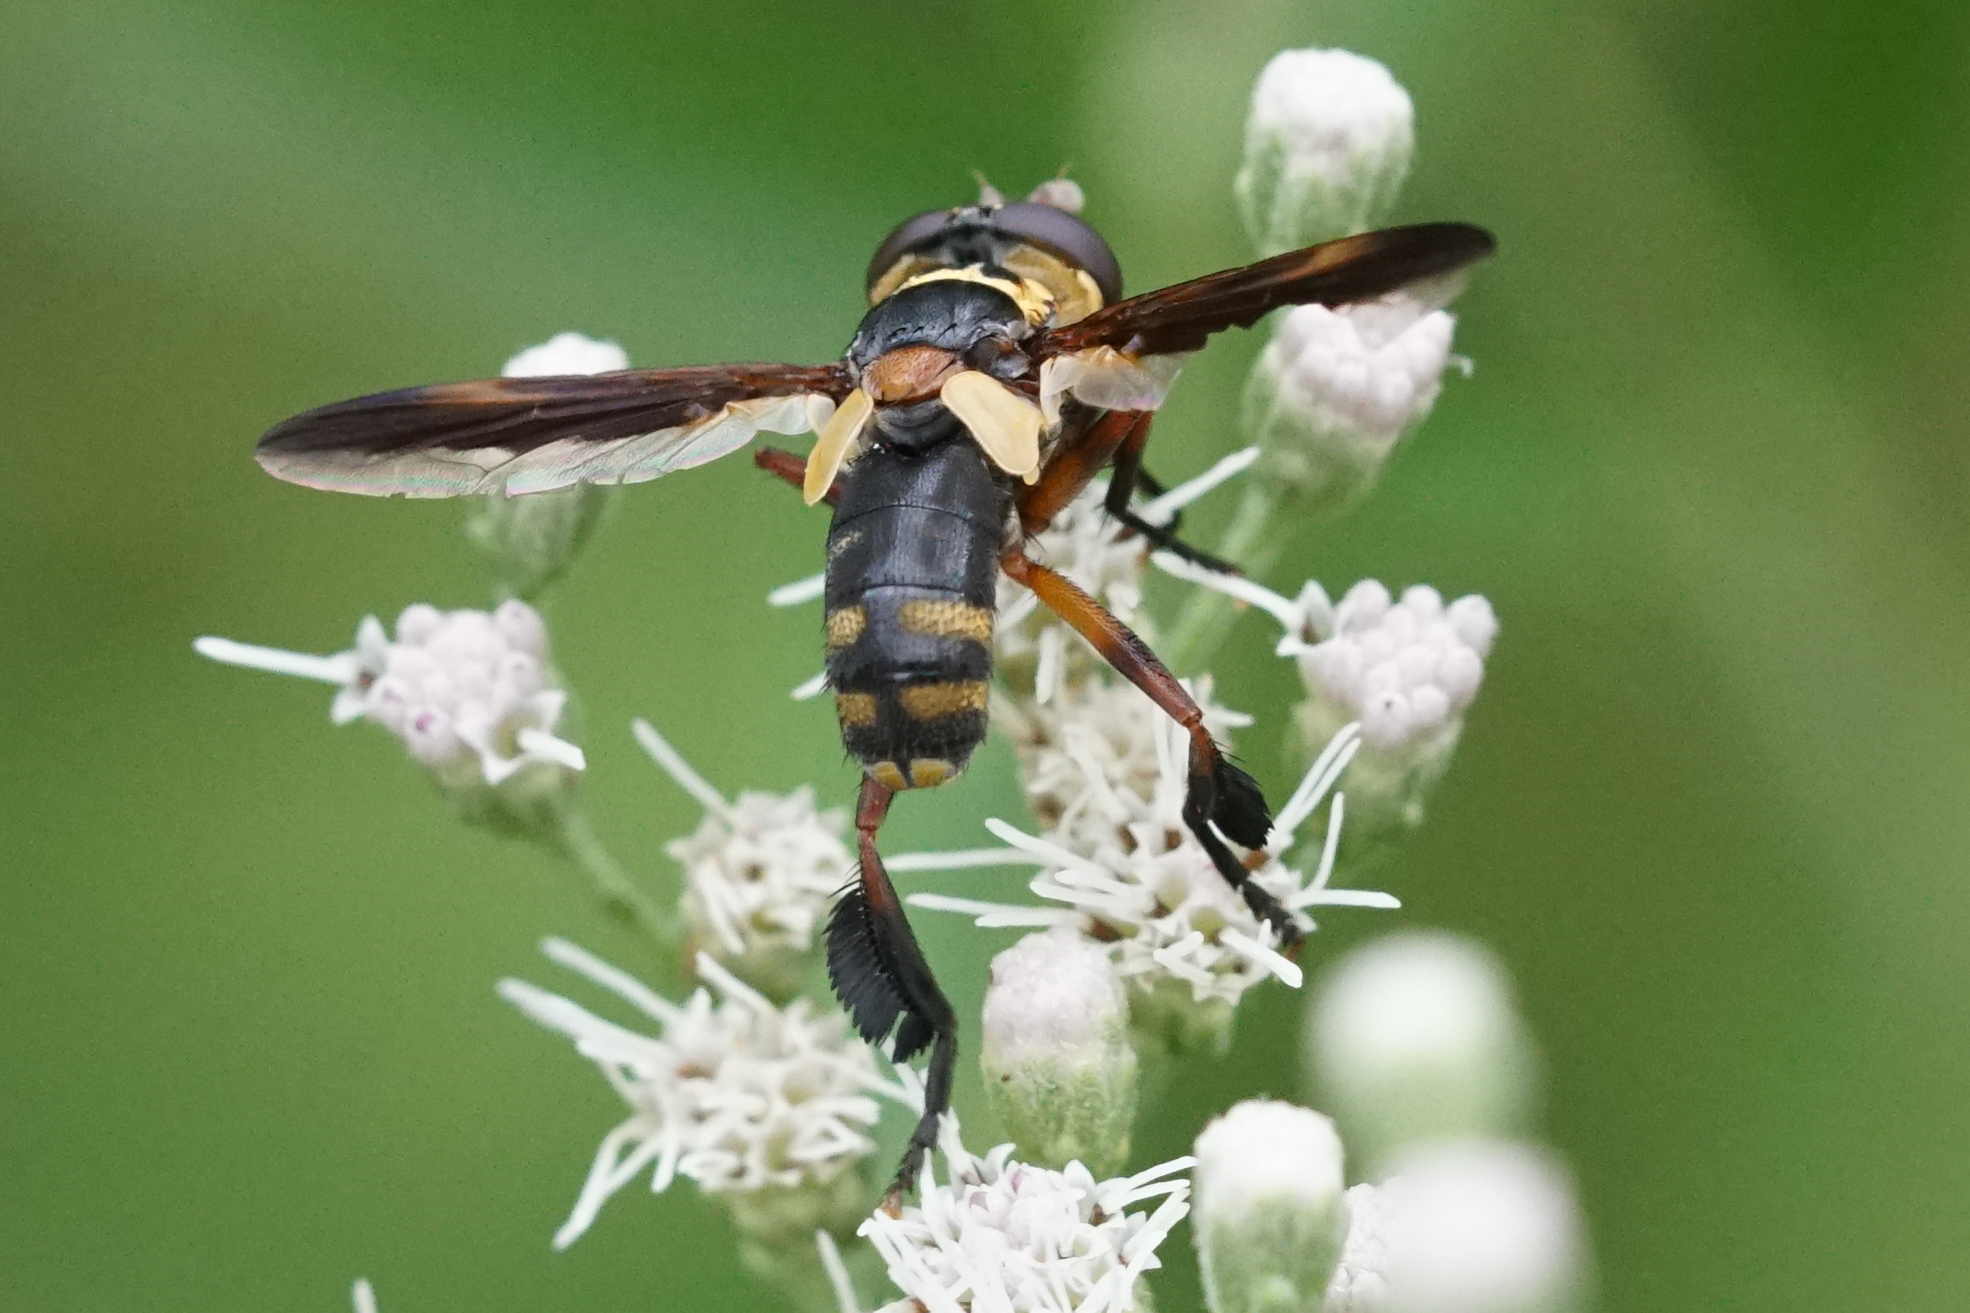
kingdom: Animalia
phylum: Arthropoda
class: Insecta
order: Diptera
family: Tachinidae
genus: Trichopoda
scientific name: Trichopoda plumipes
